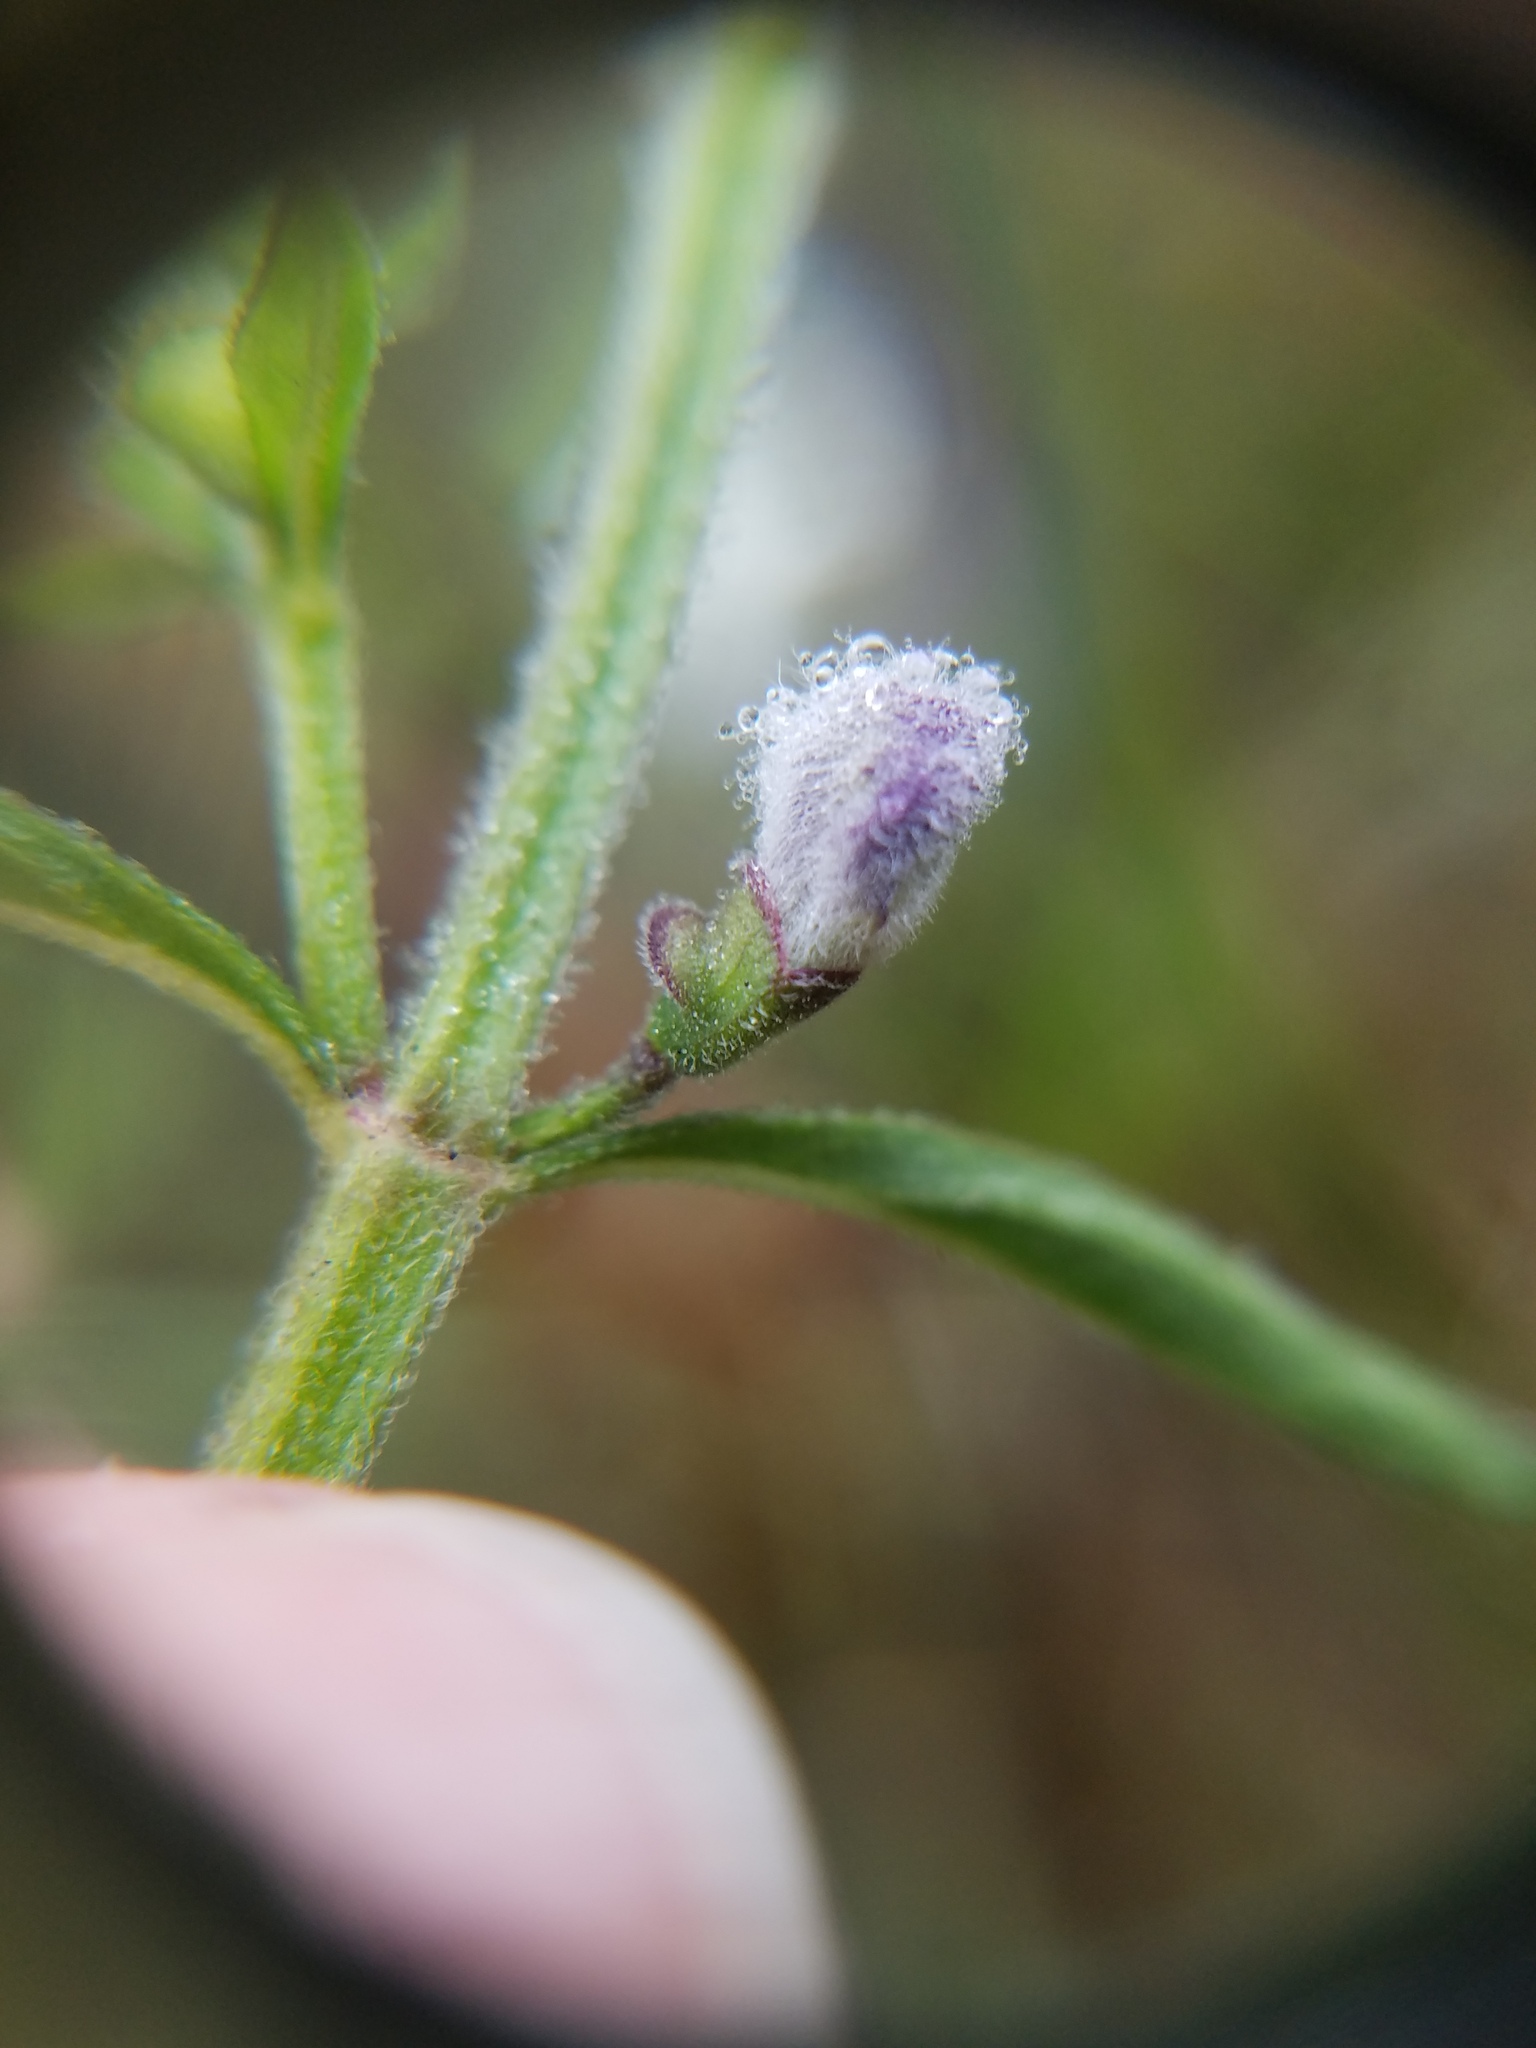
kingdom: Plantae
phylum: Tracheophyta
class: Magnoliopsida
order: Lamiales
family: Lamiaceae
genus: Scutellaria
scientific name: Scutellaria integrifolia
